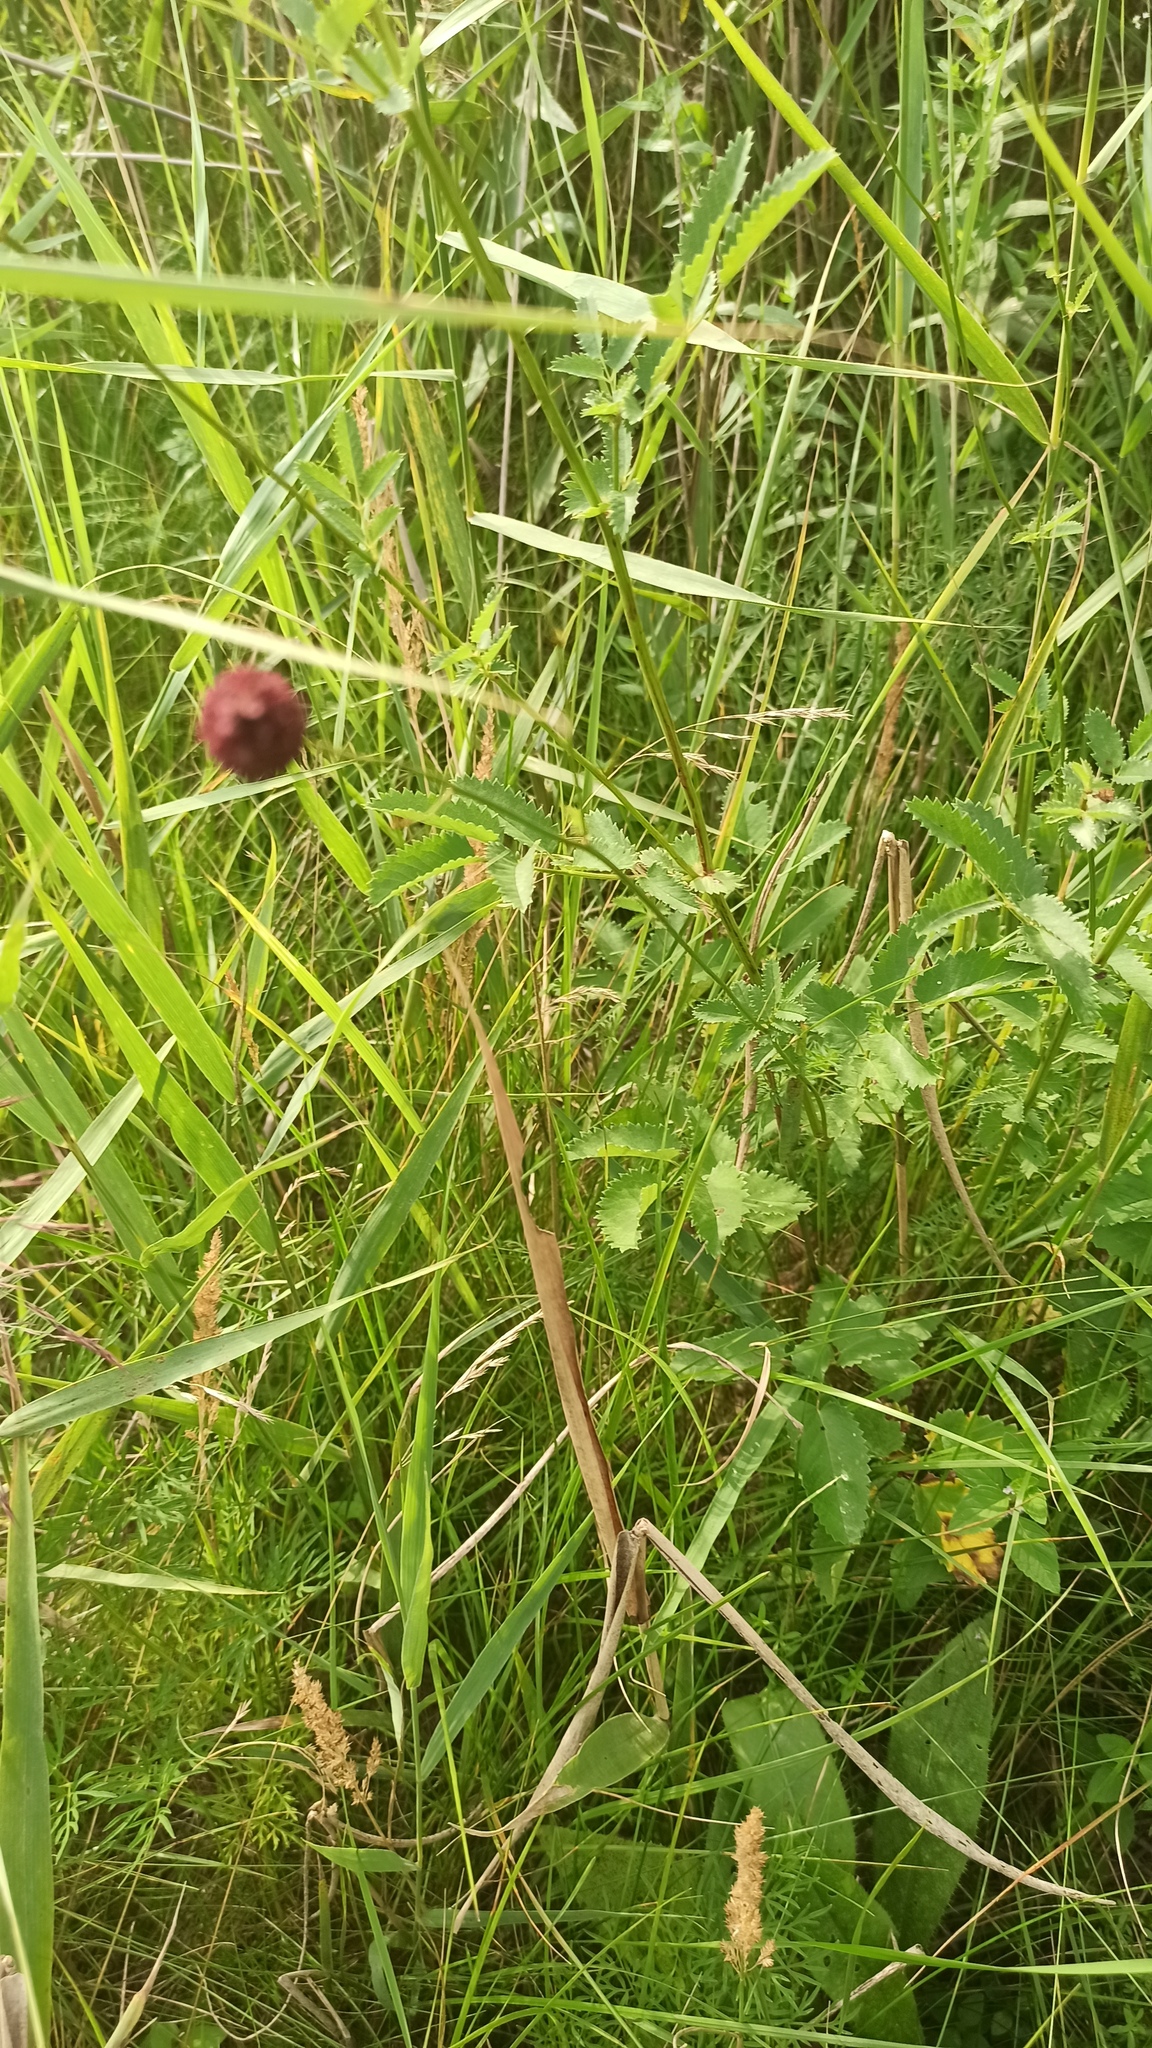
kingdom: Plantae
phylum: Tracheophyta
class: Magnoliopsida
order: Rosales
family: Rosaceae
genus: Sanguisorba
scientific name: Sanguisorba officinalis
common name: Great burnet
